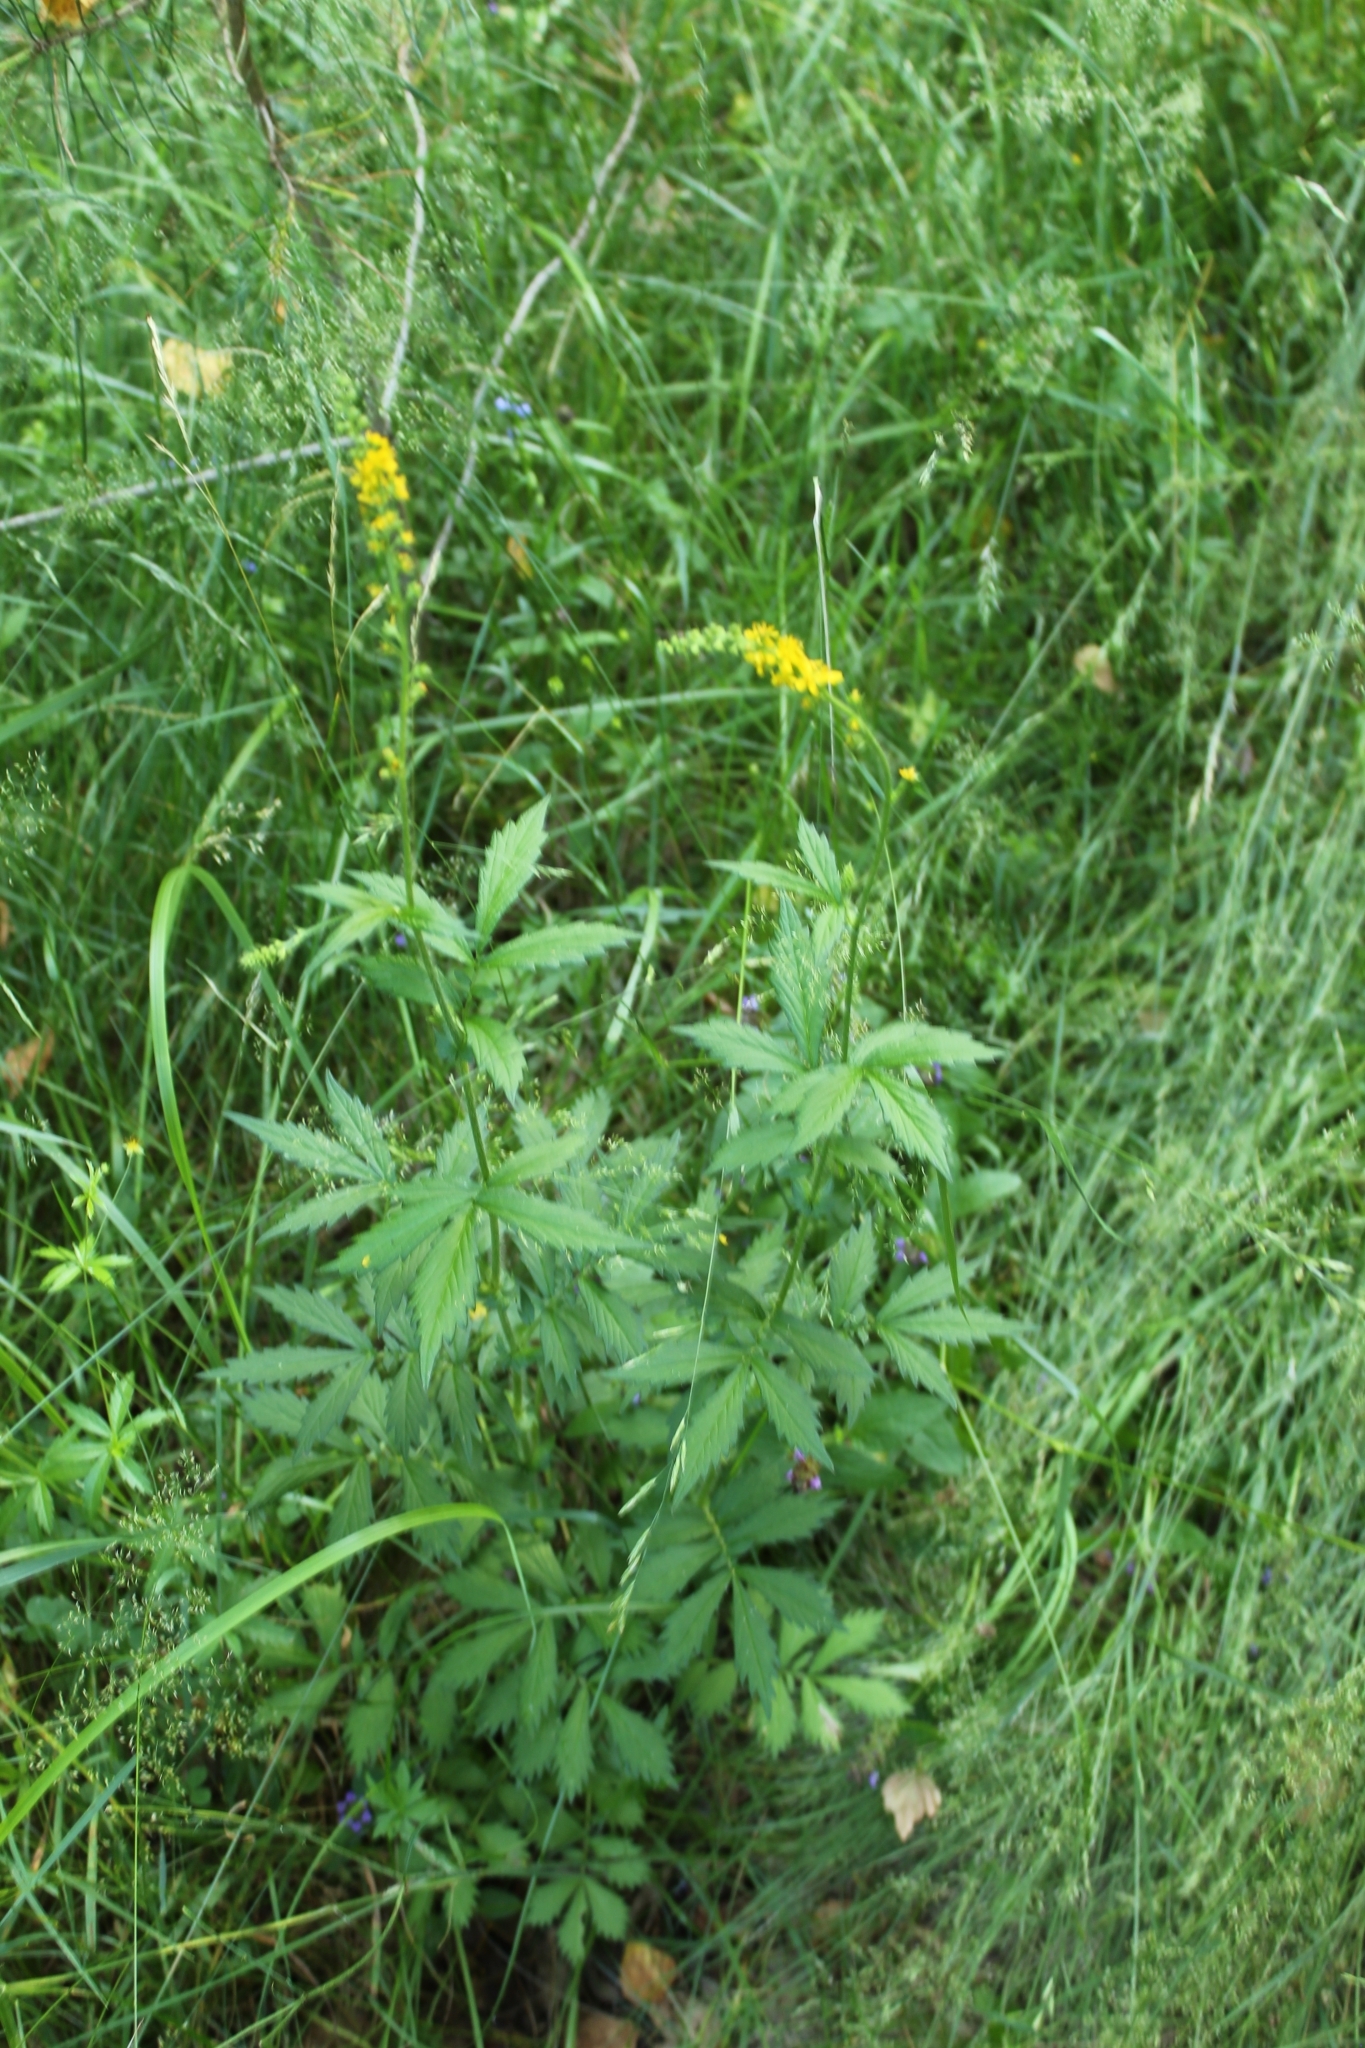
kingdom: Plantae
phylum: Tracheophyta
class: Magnoliopsida
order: Rosales
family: Rosaceae
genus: Agrimonia
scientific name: Agrimonia pilosa
